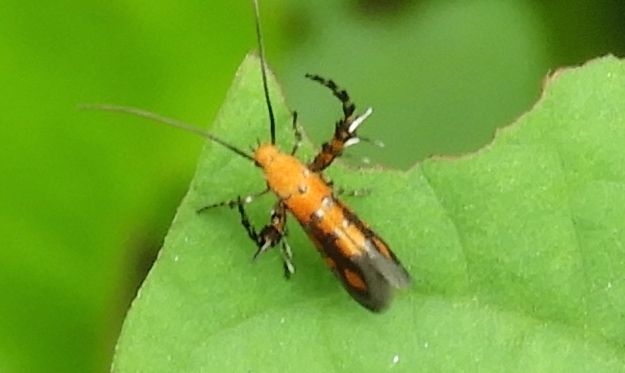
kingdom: Animalia
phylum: Arthropoda
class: Insecta
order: Lepidoptera
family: Heliodinidae
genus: Heliodines
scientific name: Heliodines
